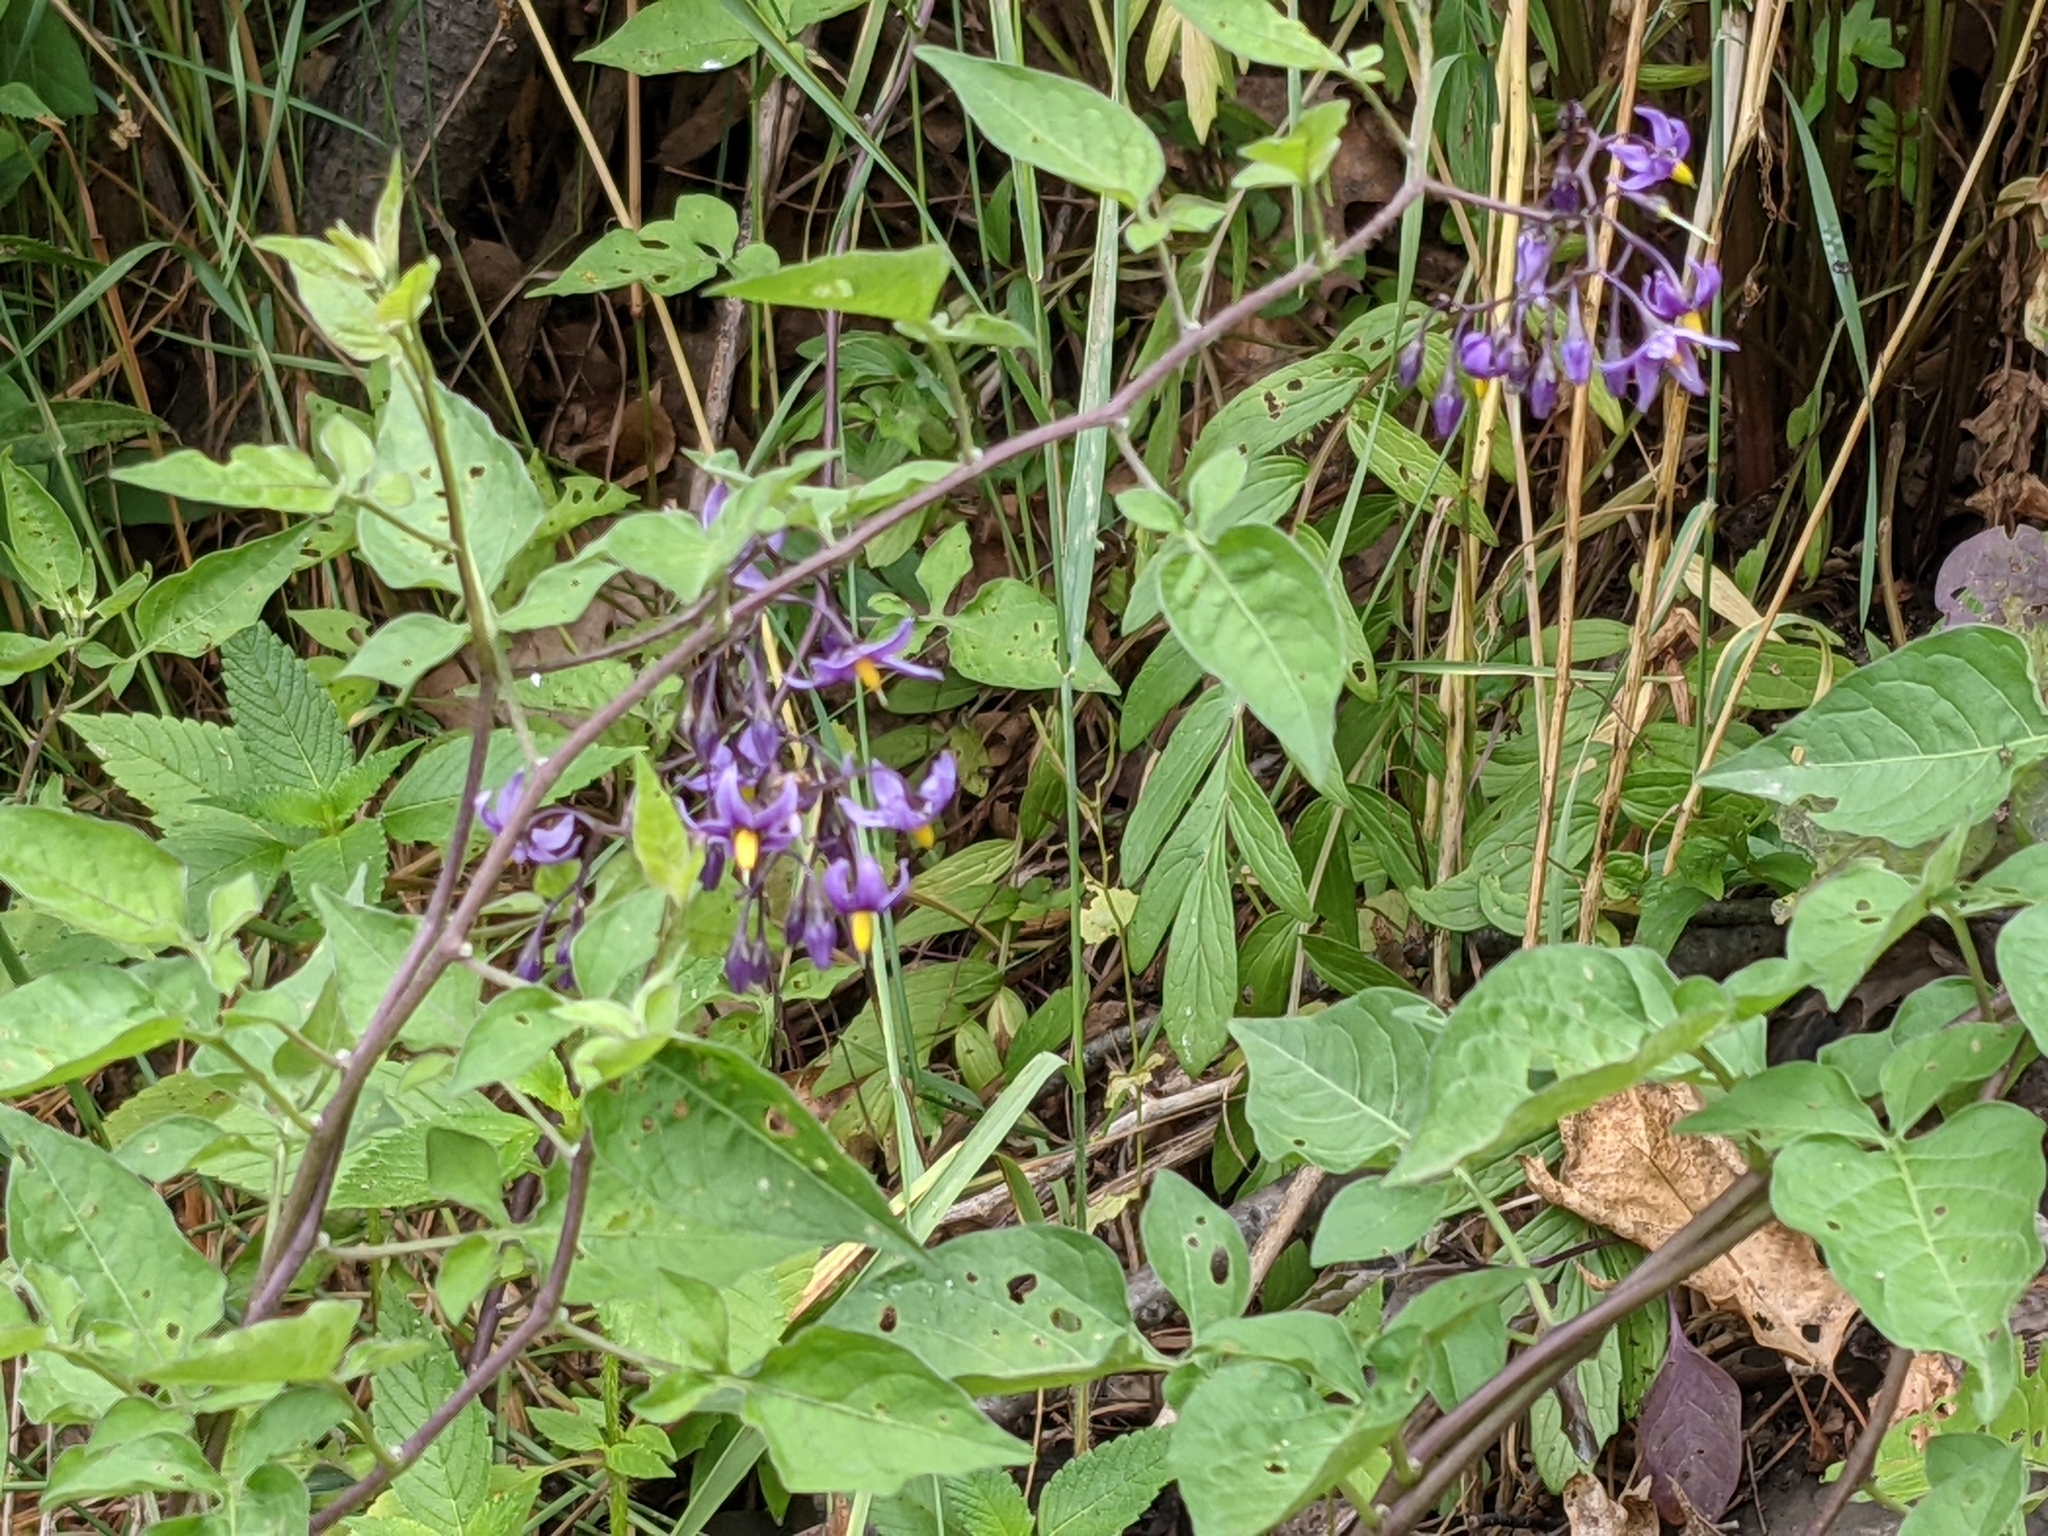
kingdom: Plantae
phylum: Tracheophyta
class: Magnoliopsida
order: Solanales
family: Solanaceae
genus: Solanum
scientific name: Solanum dulcamara
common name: Climbing nightshade
